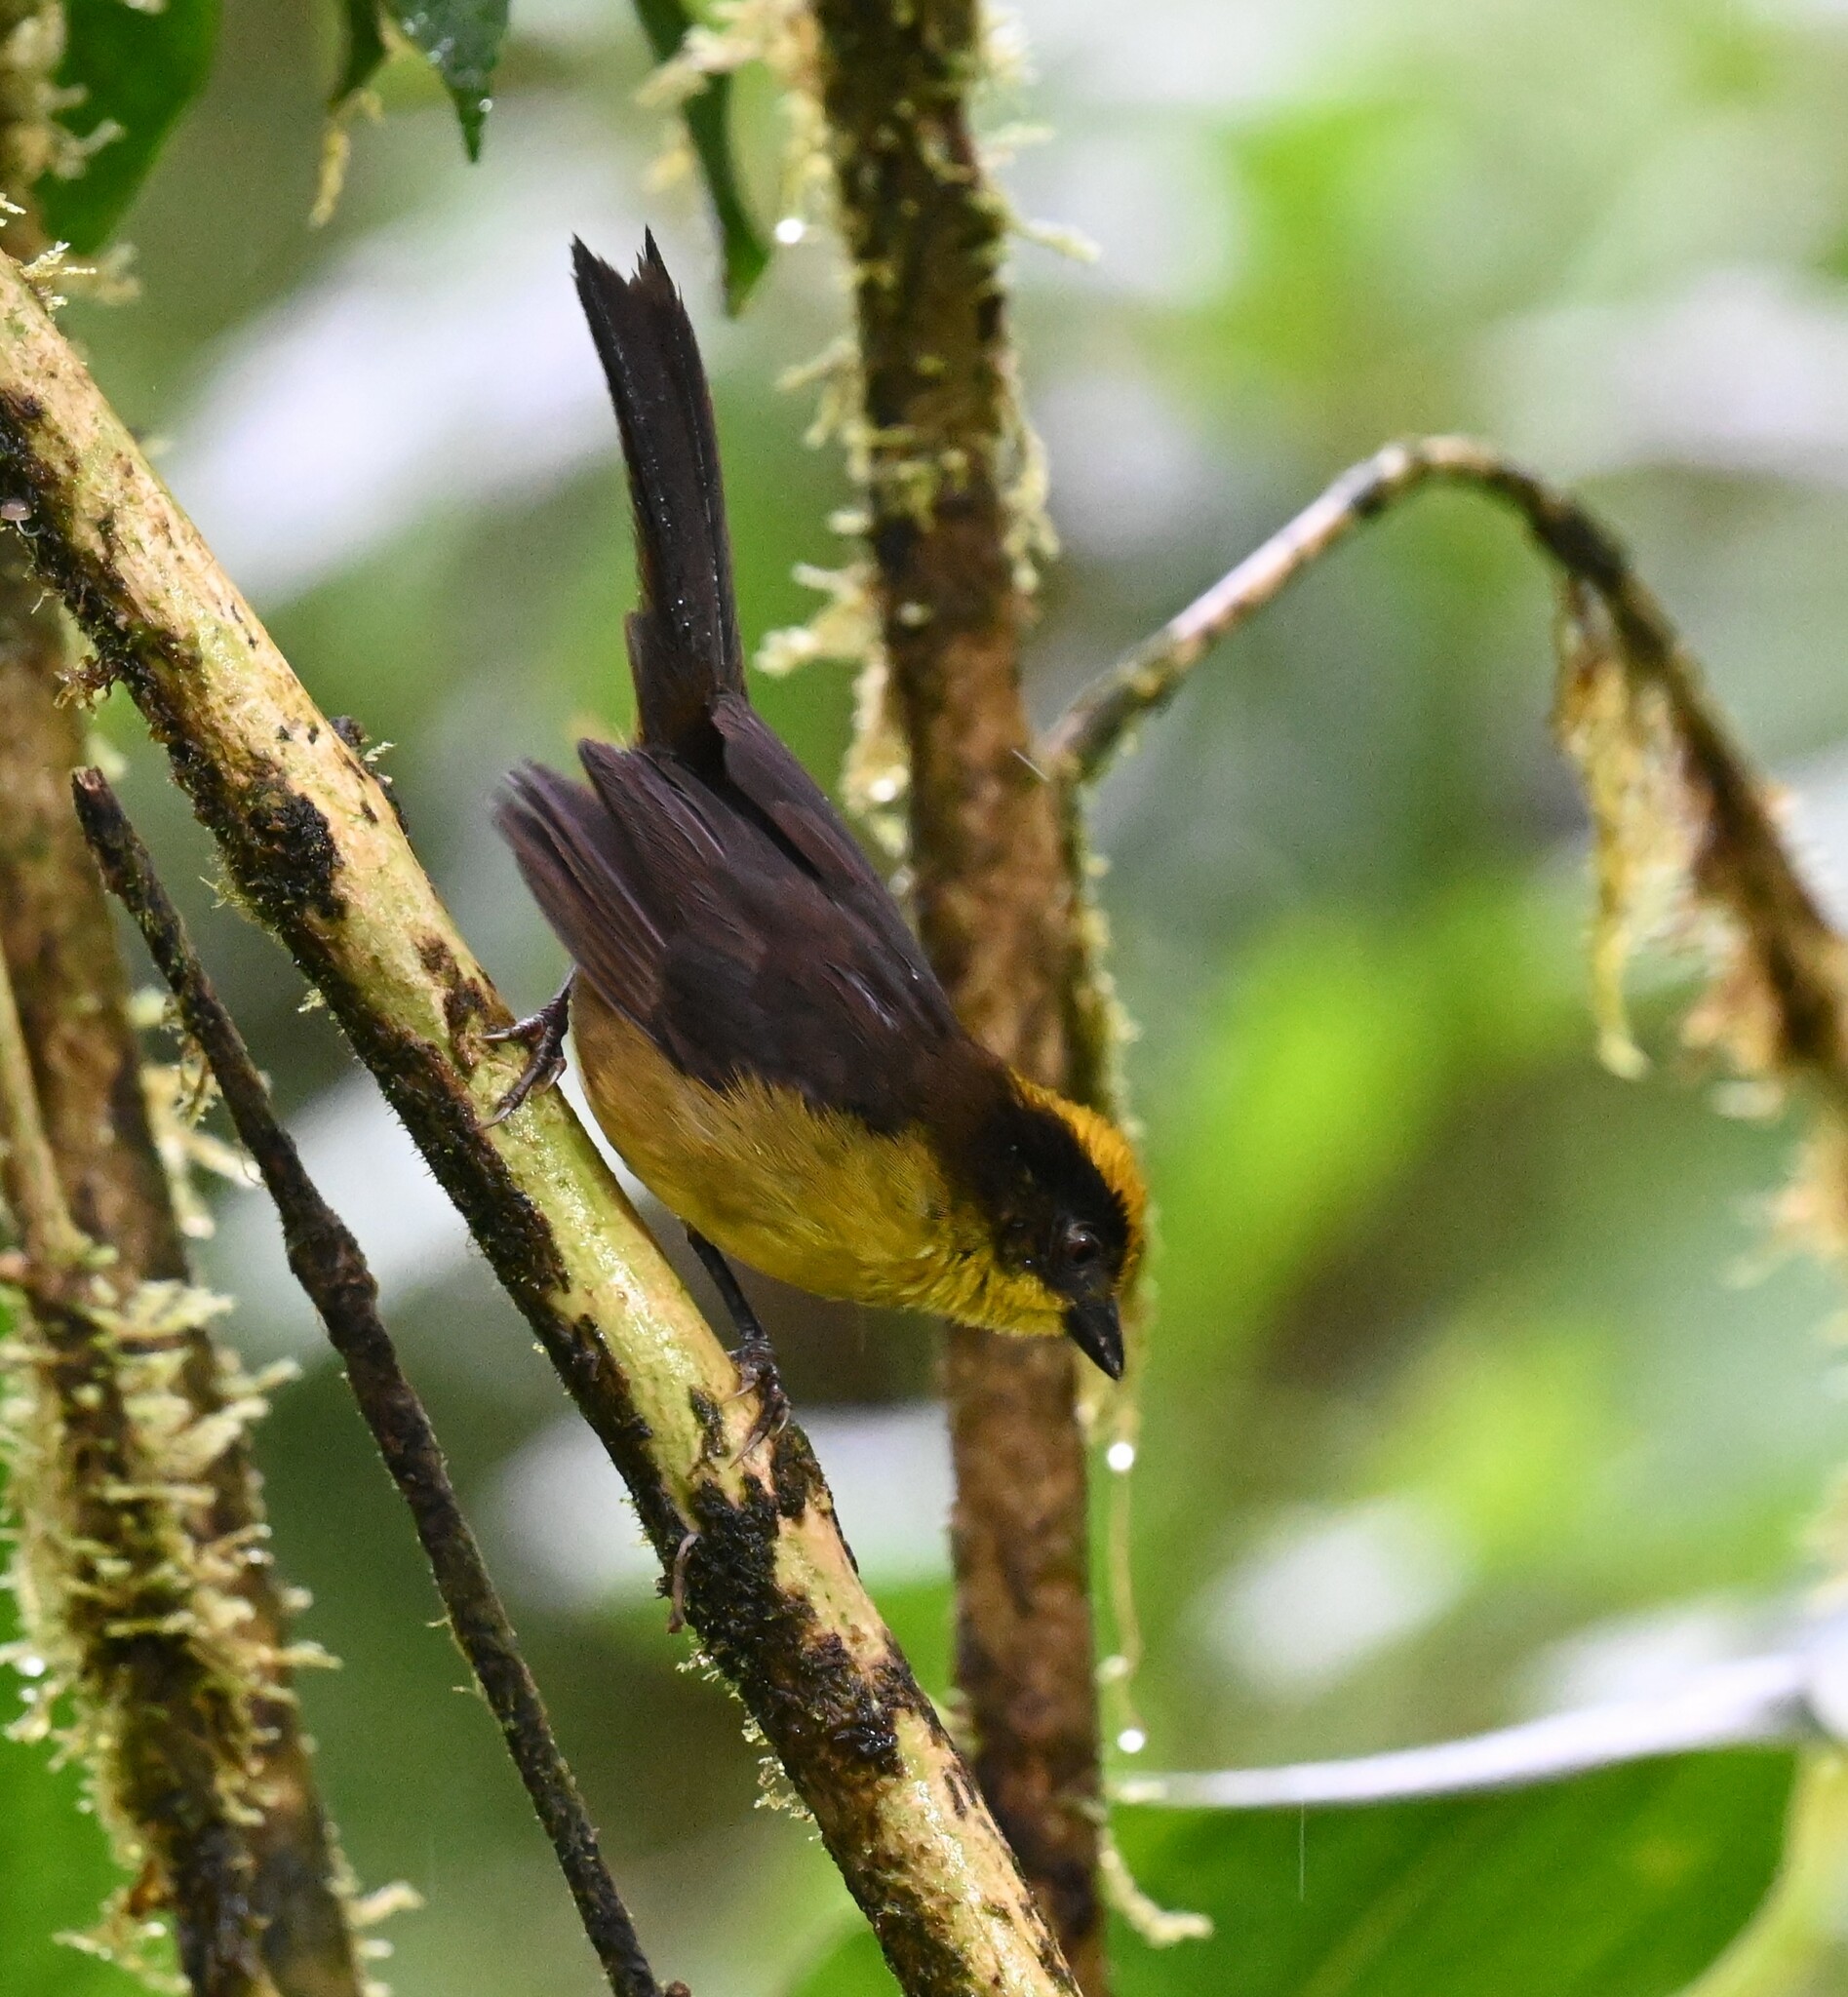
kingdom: Animalia
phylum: Chordata
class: Aves
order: Passeriformes
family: Passerellidae
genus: Atlapetes
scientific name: Atlapetes tricolor
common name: Tricolored brushfinch
